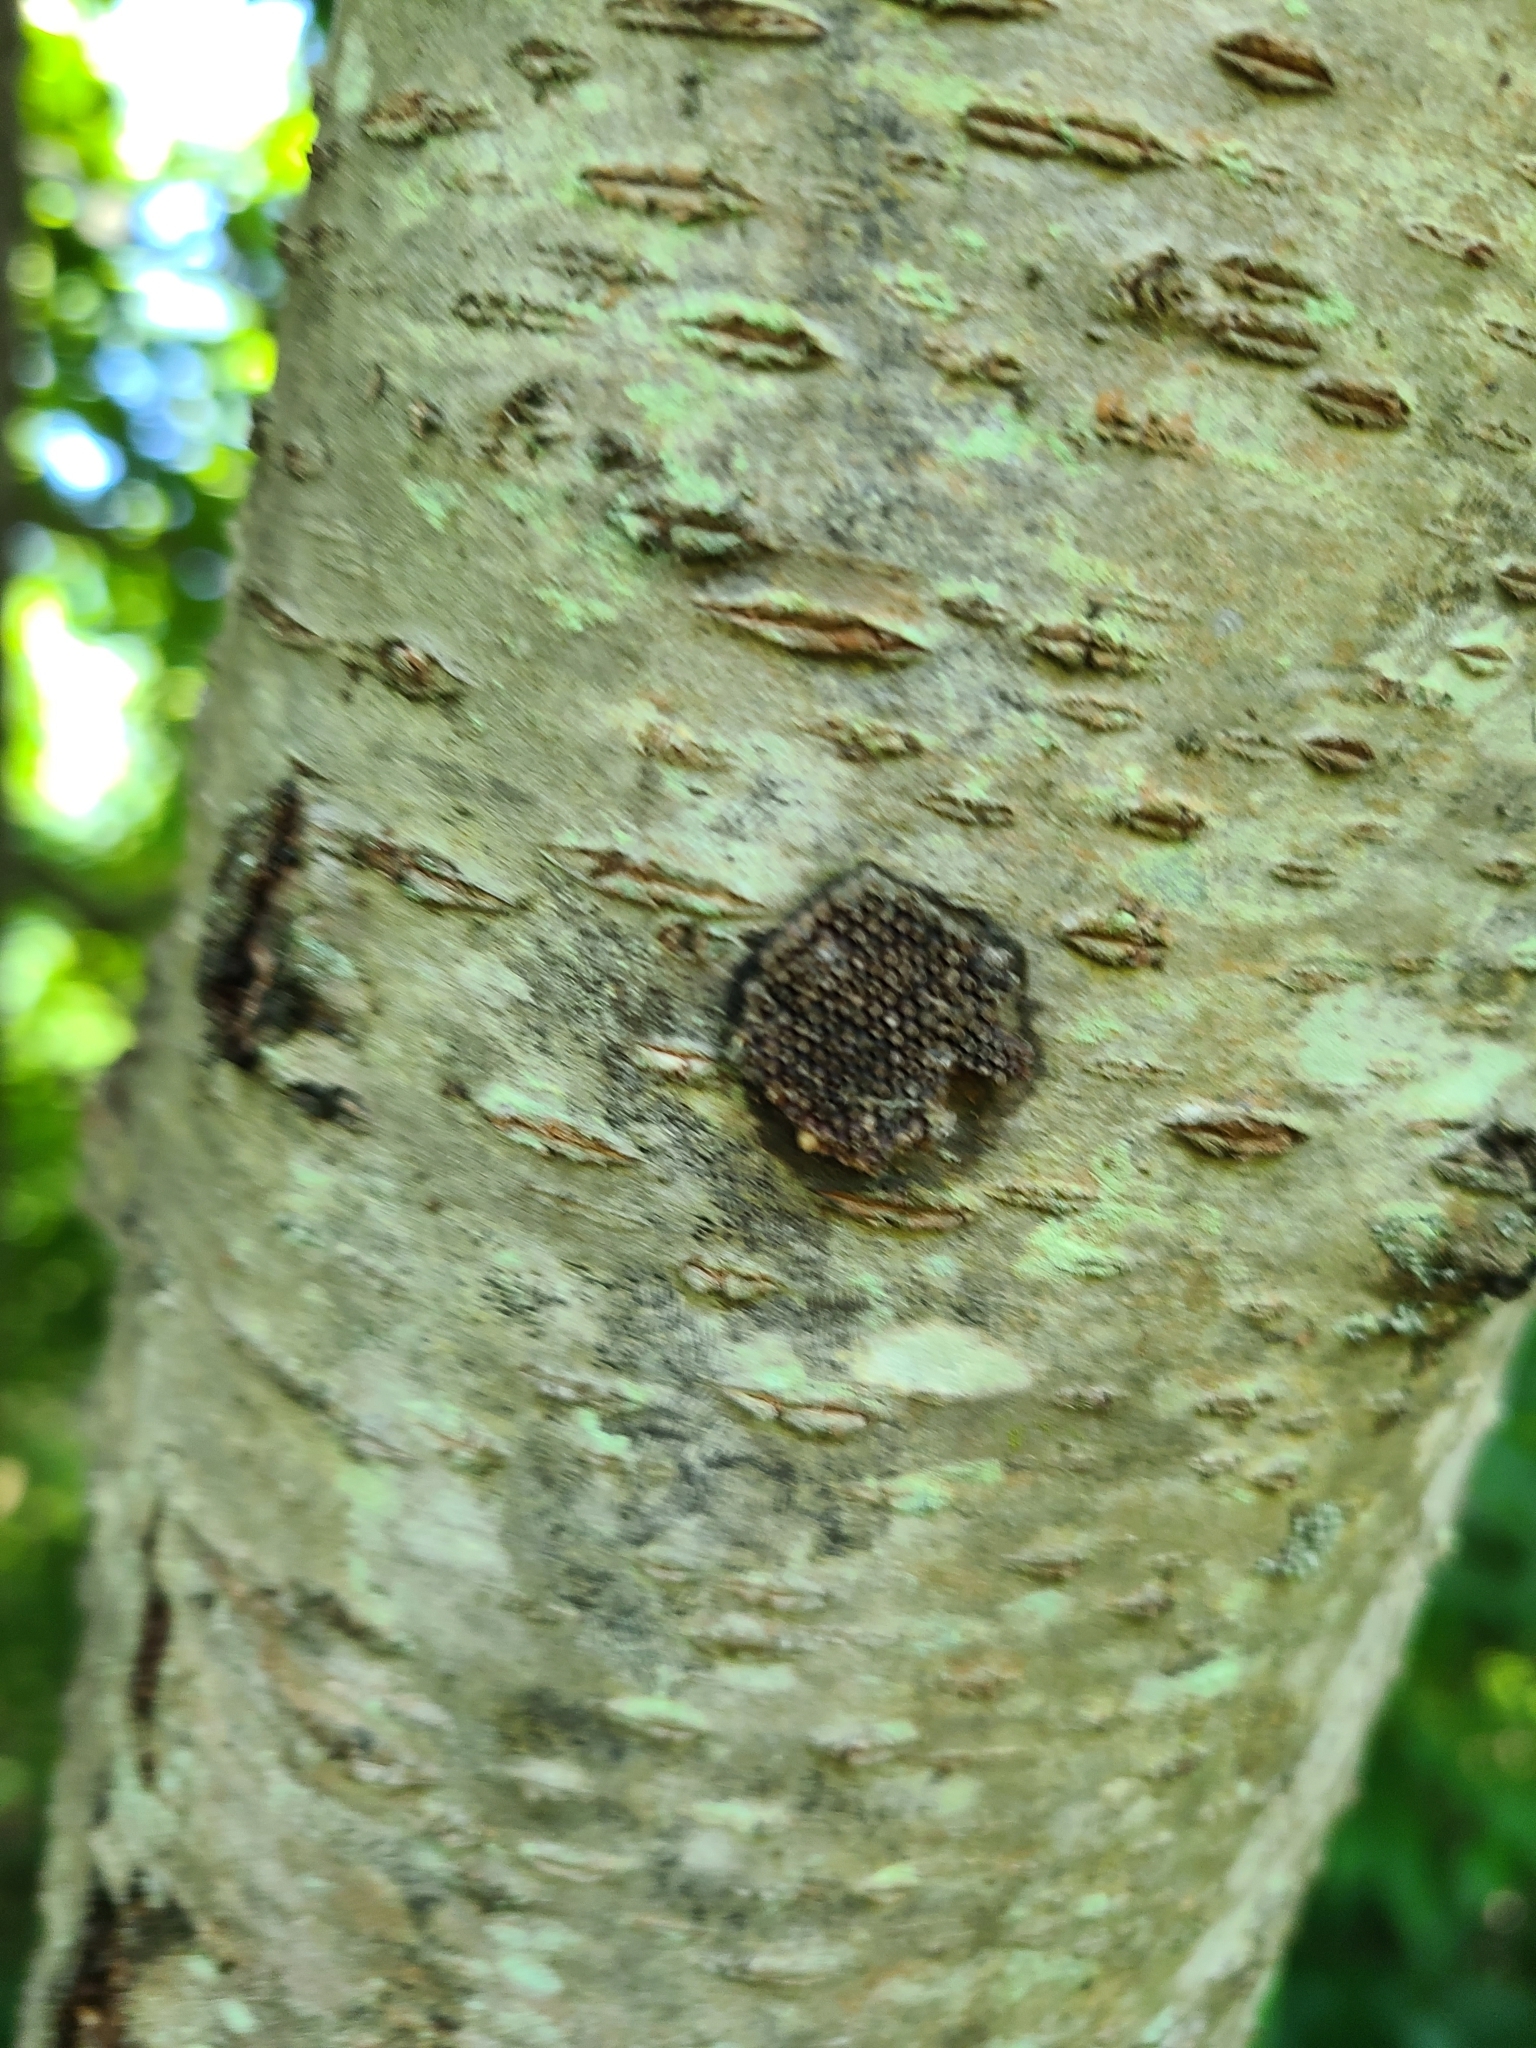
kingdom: Animalia
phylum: Arthropoda
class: Insecta
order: Hemiptera
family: Reduviidae
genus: Arilus
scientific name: Arilus cristatus
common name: North american wheel bug
